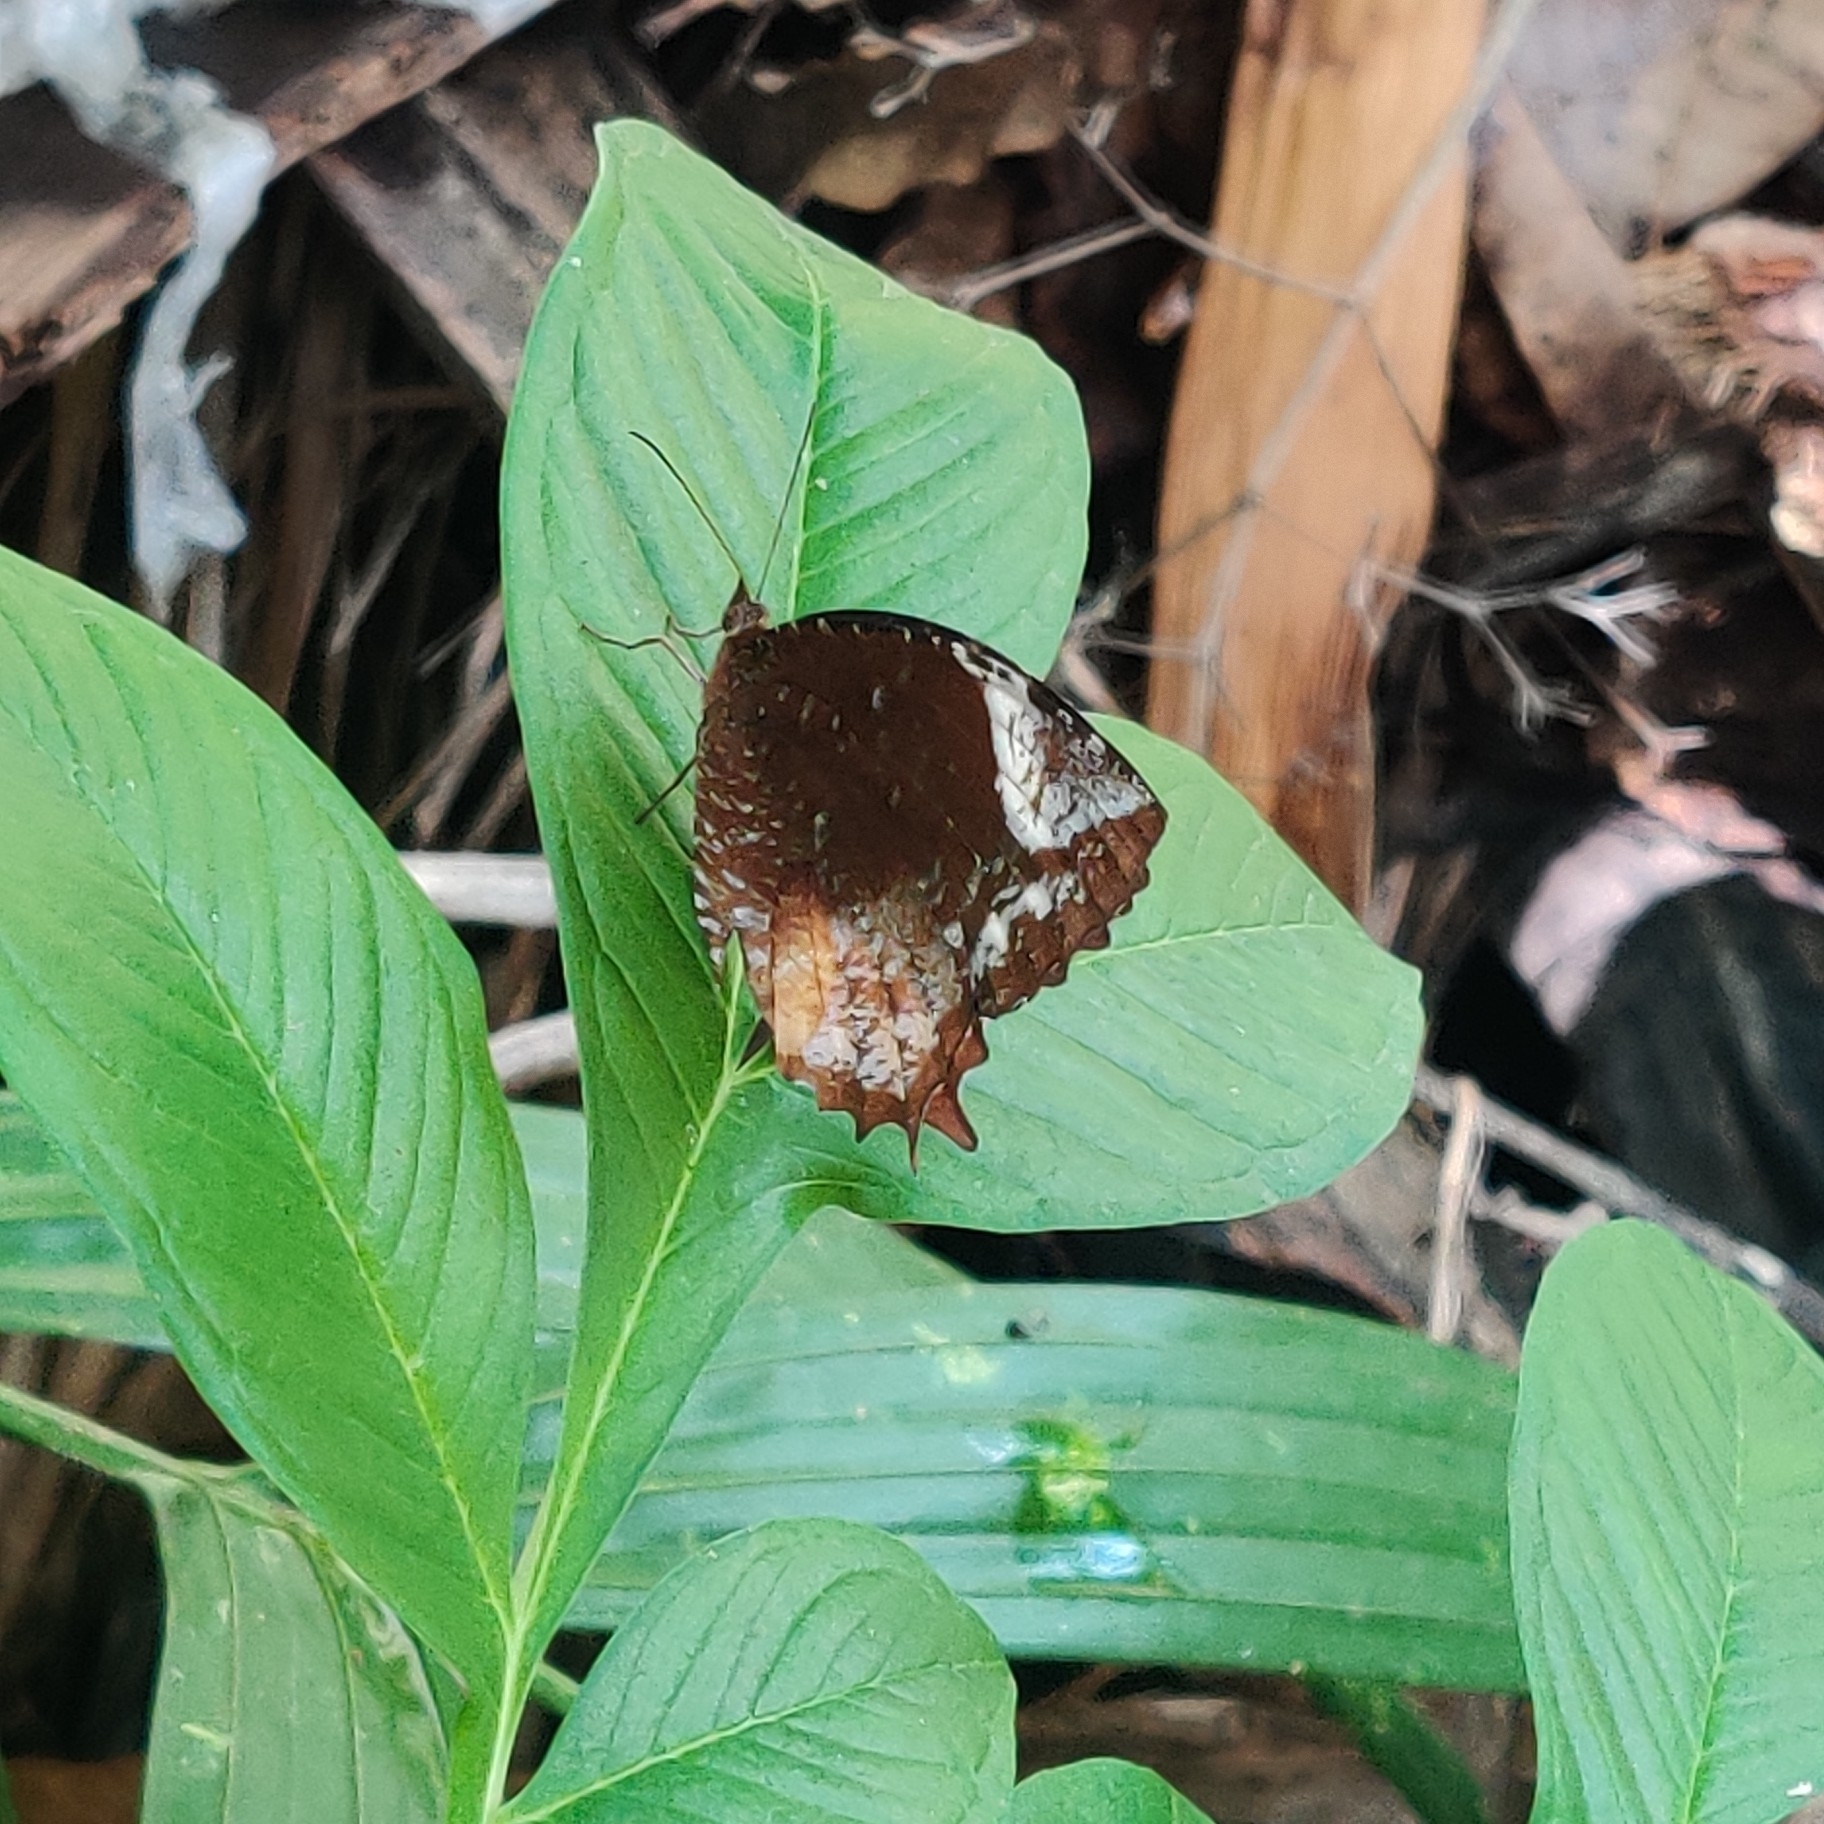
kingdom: Animalia
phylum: Arthropoda
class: Insecta
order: Lepidoptera
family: Nymphalidae
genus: Elymnias
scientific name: Elymnias caudata
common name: Tailed palmfly
